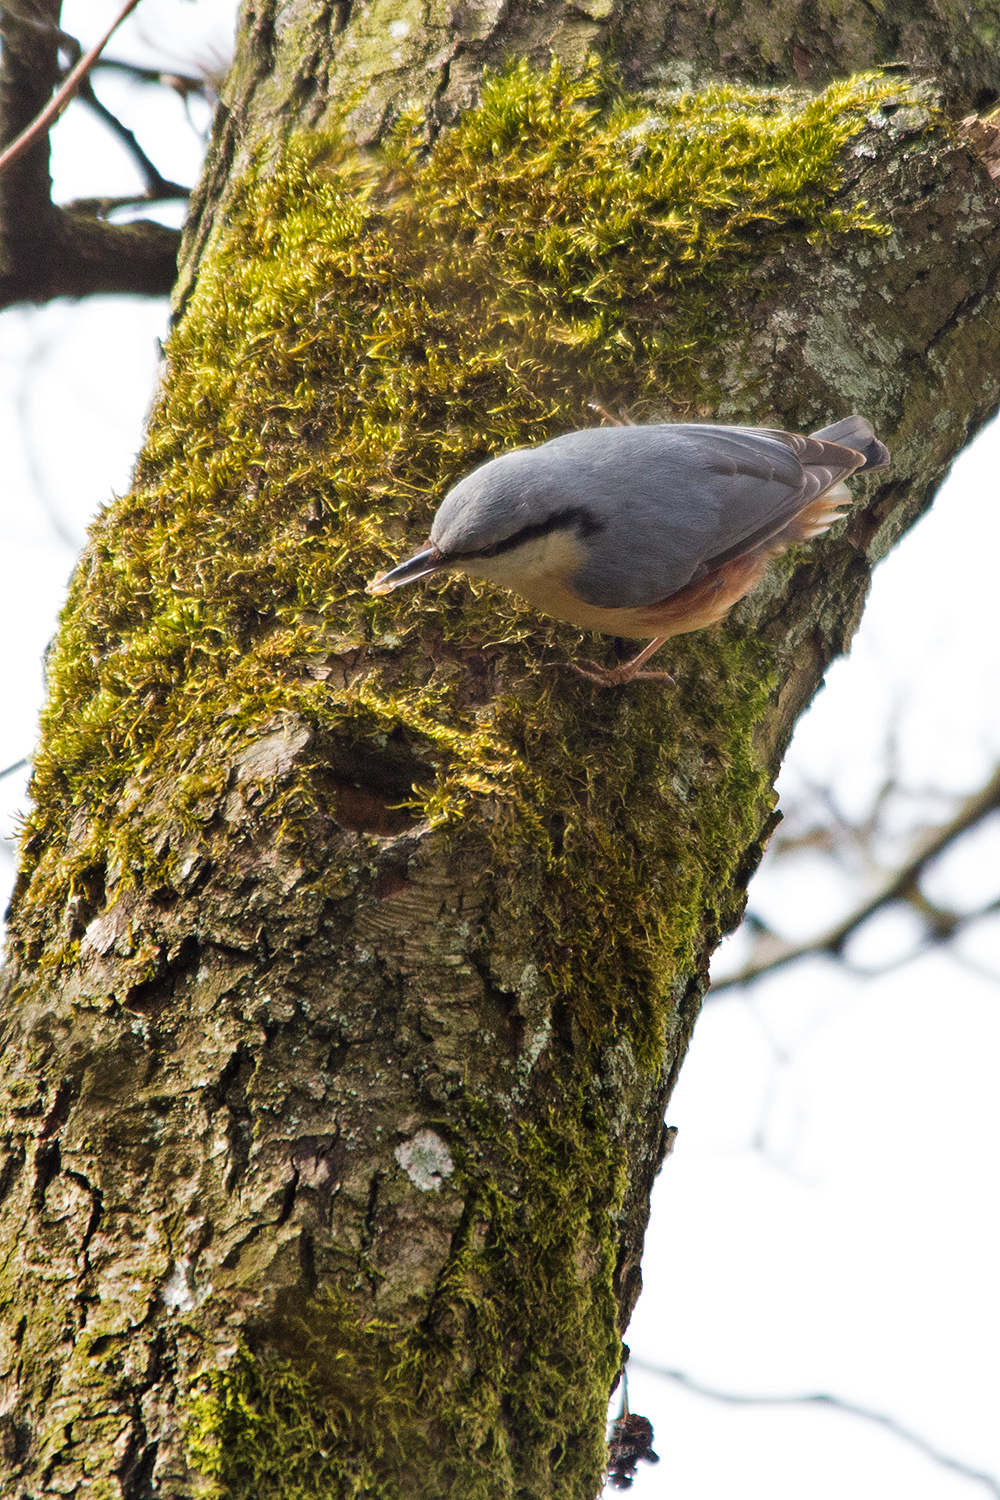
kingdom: Animalia
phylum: Chordata
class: Aves
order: Passeriformes
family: Sittidae
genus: Sitta
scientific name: Sitta europaea
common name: Eurasian nuthatch
